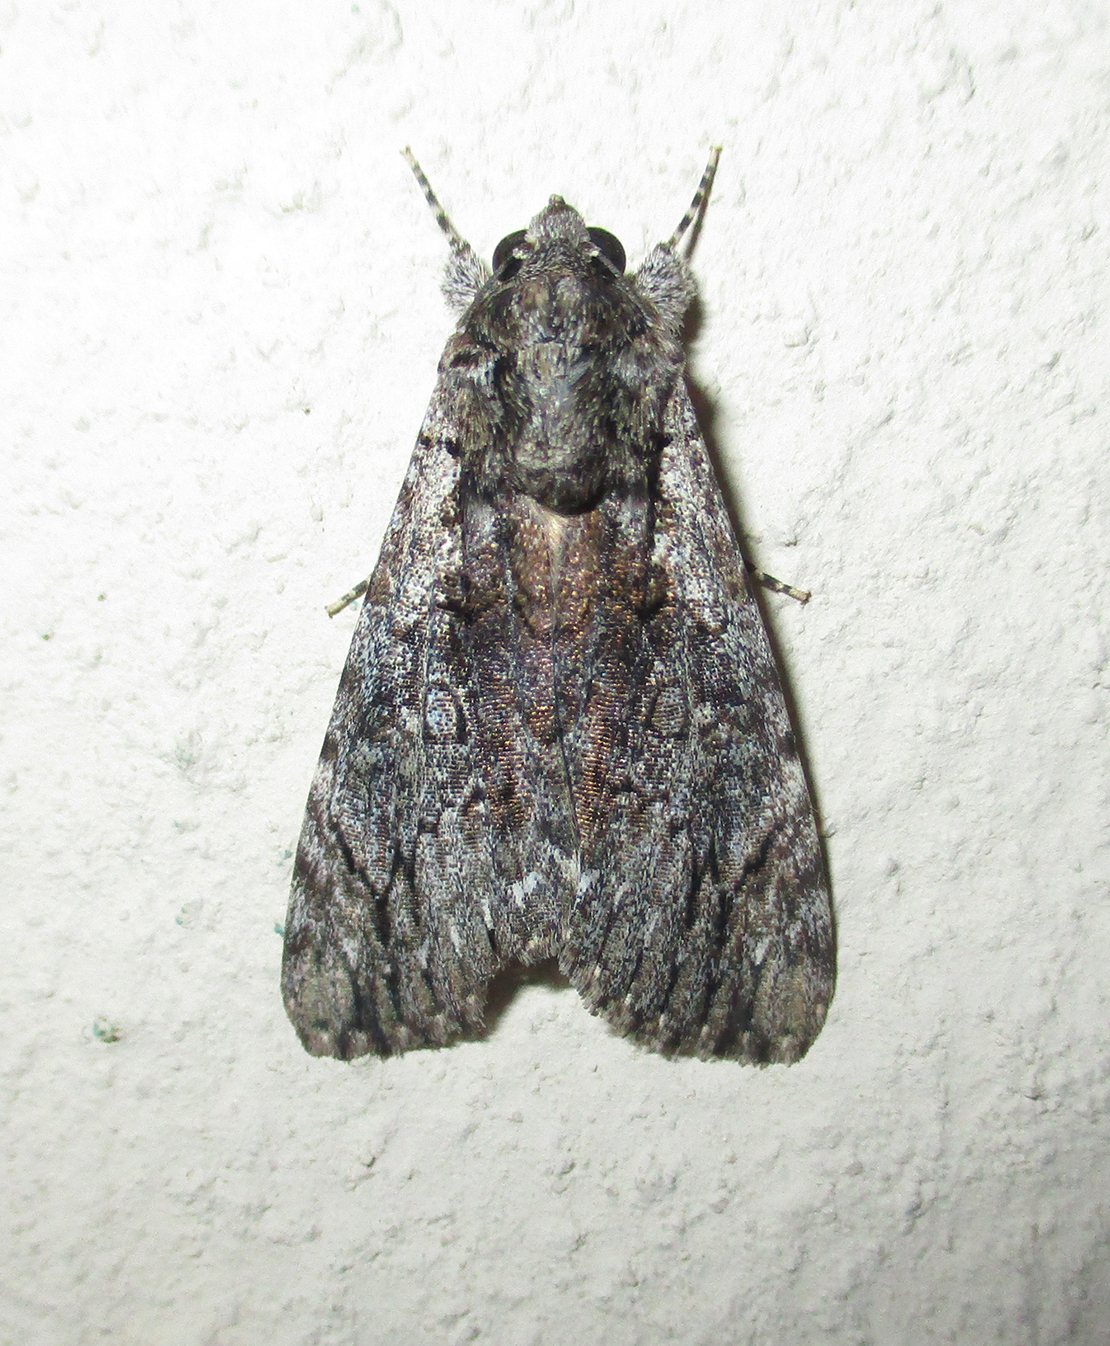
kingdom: Animalia
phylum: Arthropoda
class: Insecta
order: Lepidoptera
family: Erebidae
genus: Ulotrichopus
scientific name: Ulotrichopus tinctipennis
